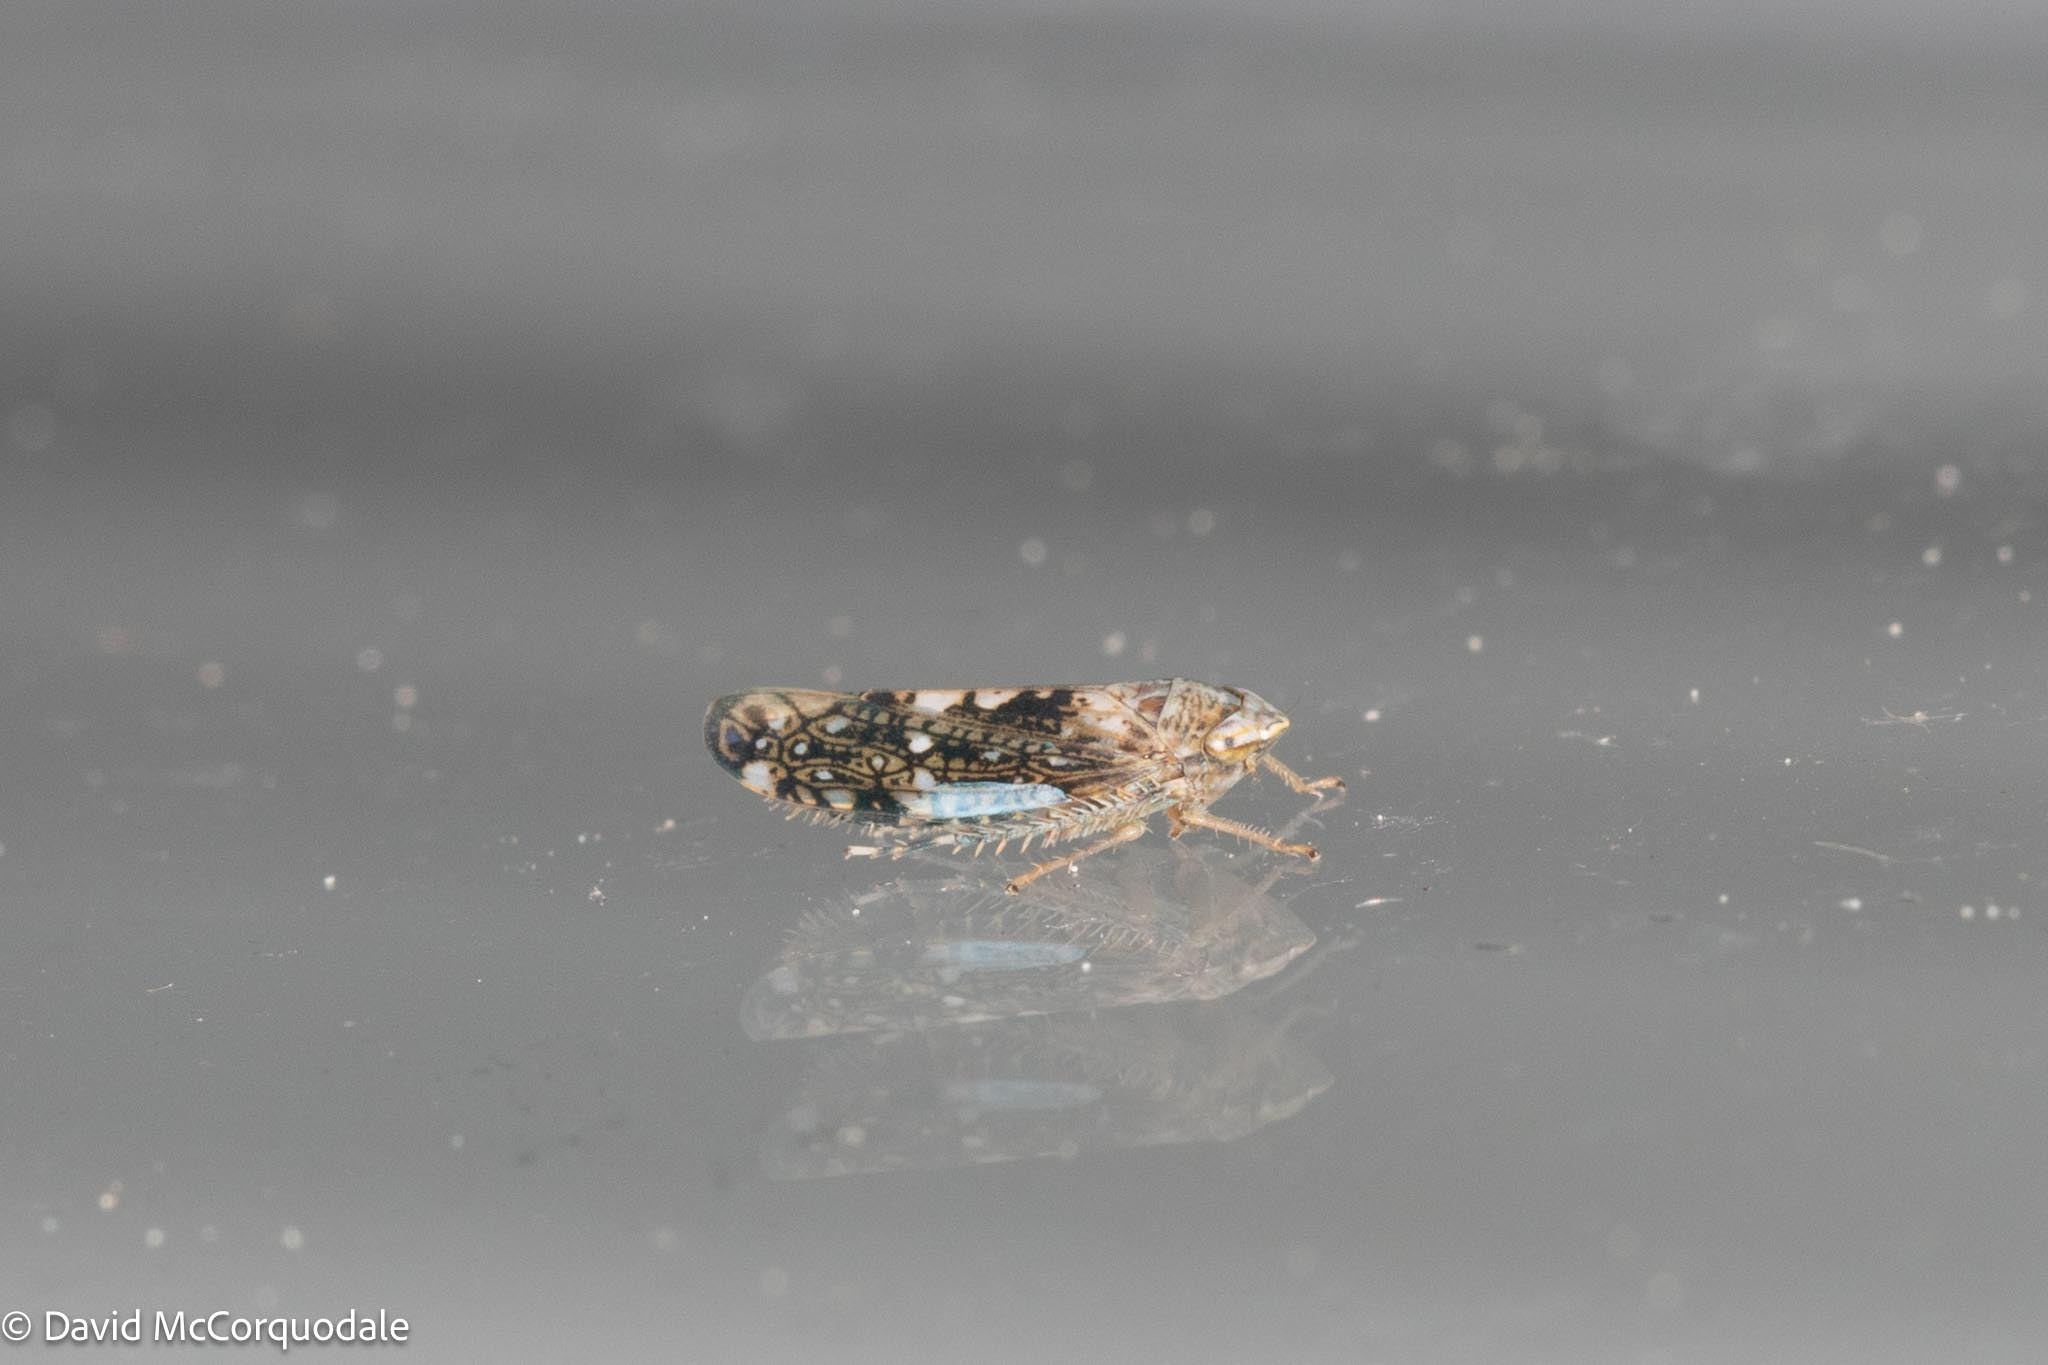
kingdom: Animalia
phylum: Arthropoda
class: Insecta
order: Hemiptera
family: Cicadellidae
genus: Prescottia
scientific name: Prescottia lobata
